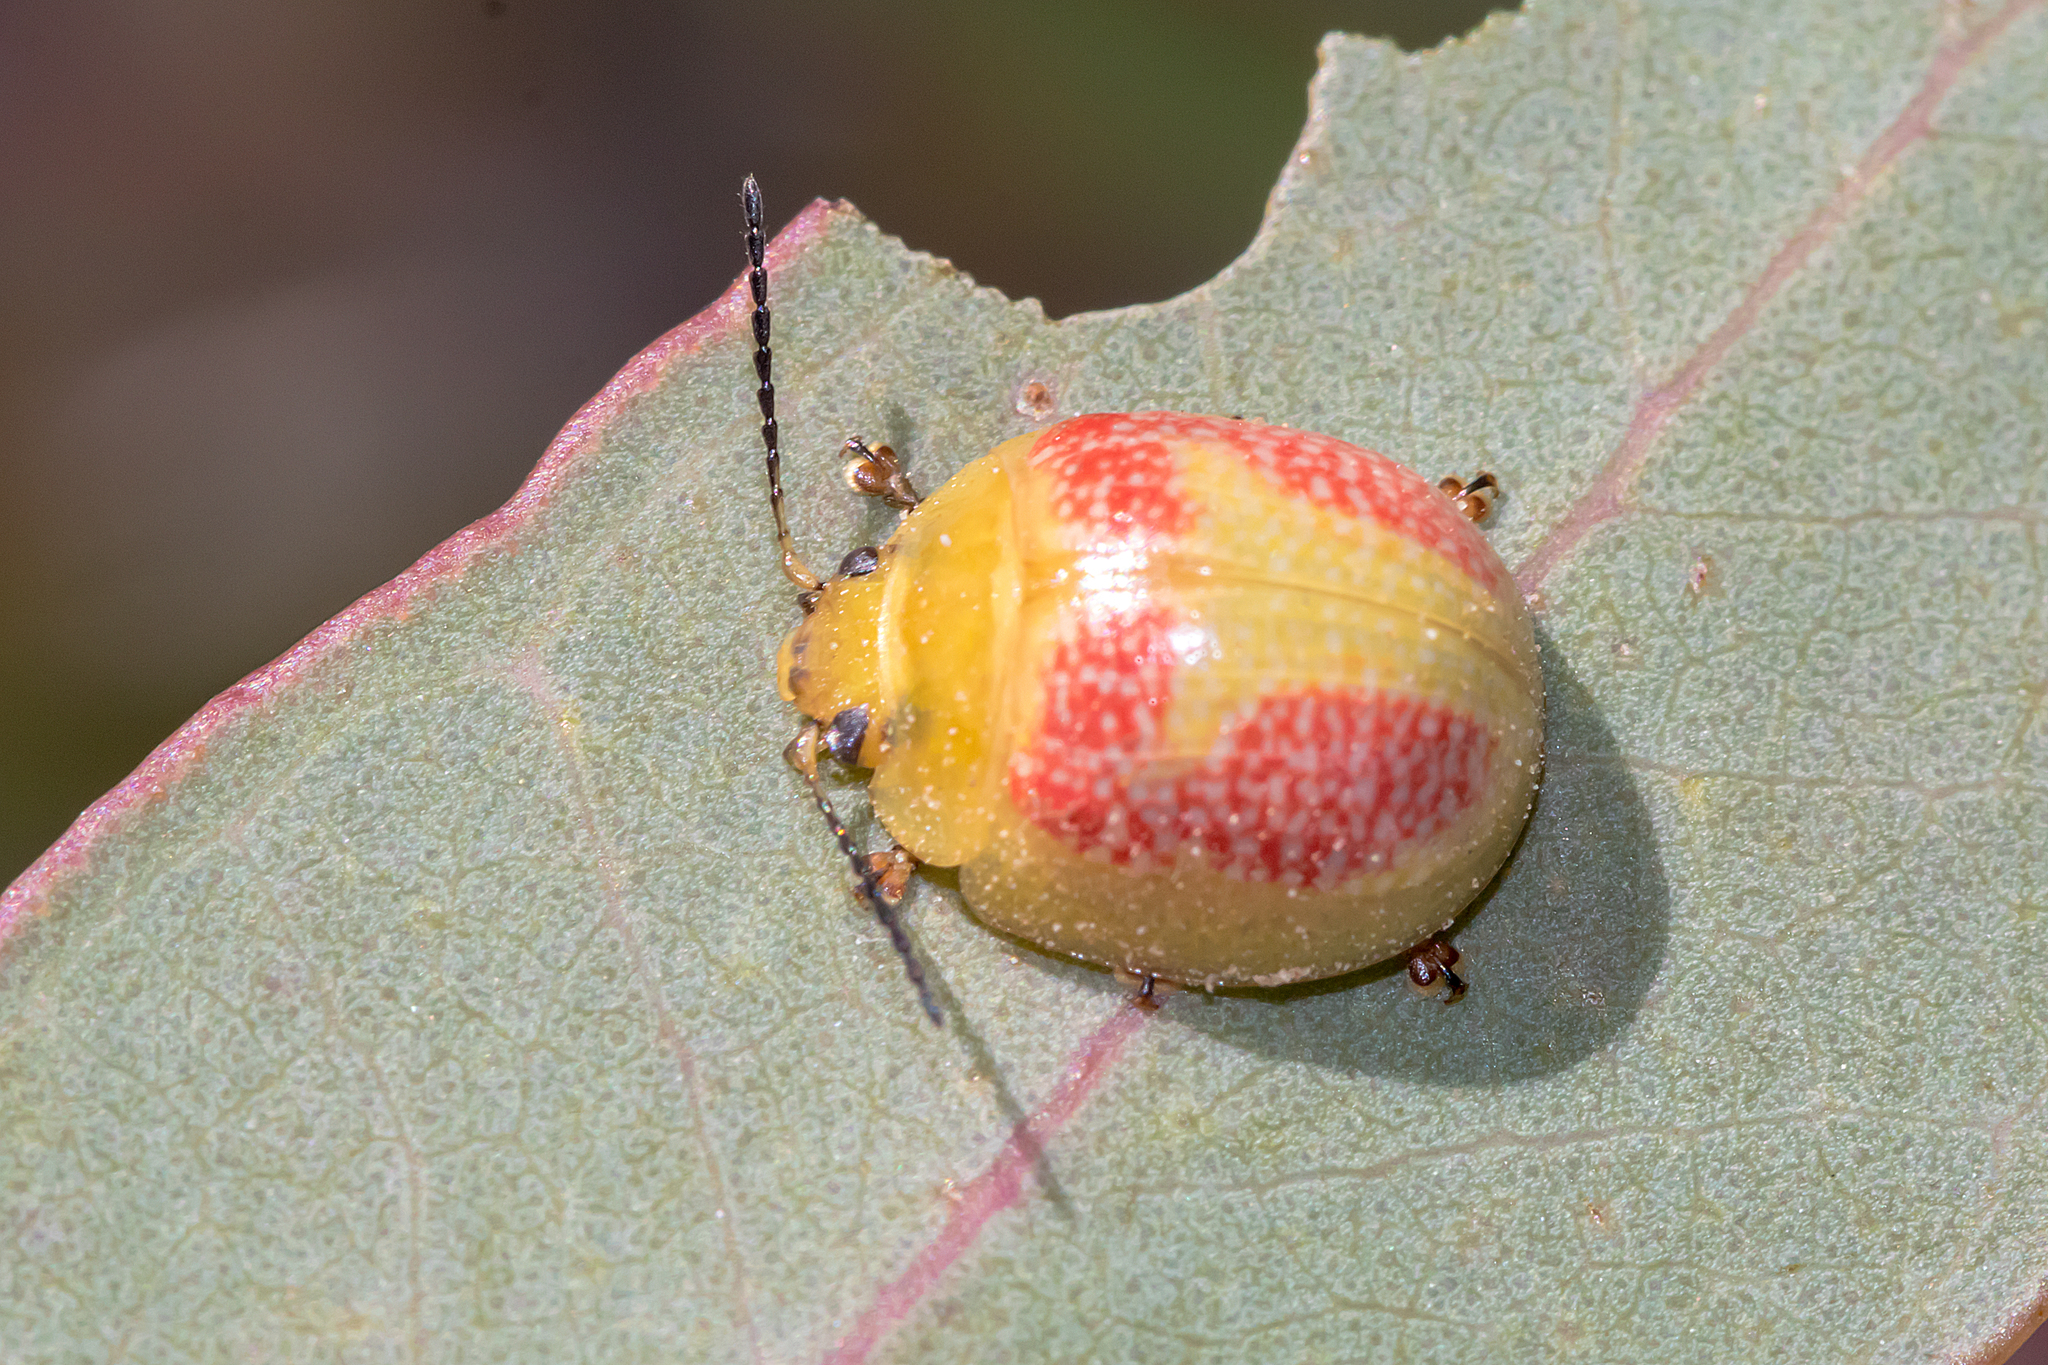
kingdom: Animalia
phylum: Arthropoda
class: Insecta
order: Coleoptera
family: Chrysomelidae
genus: Paropsisterna
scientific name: Paropsisterna
